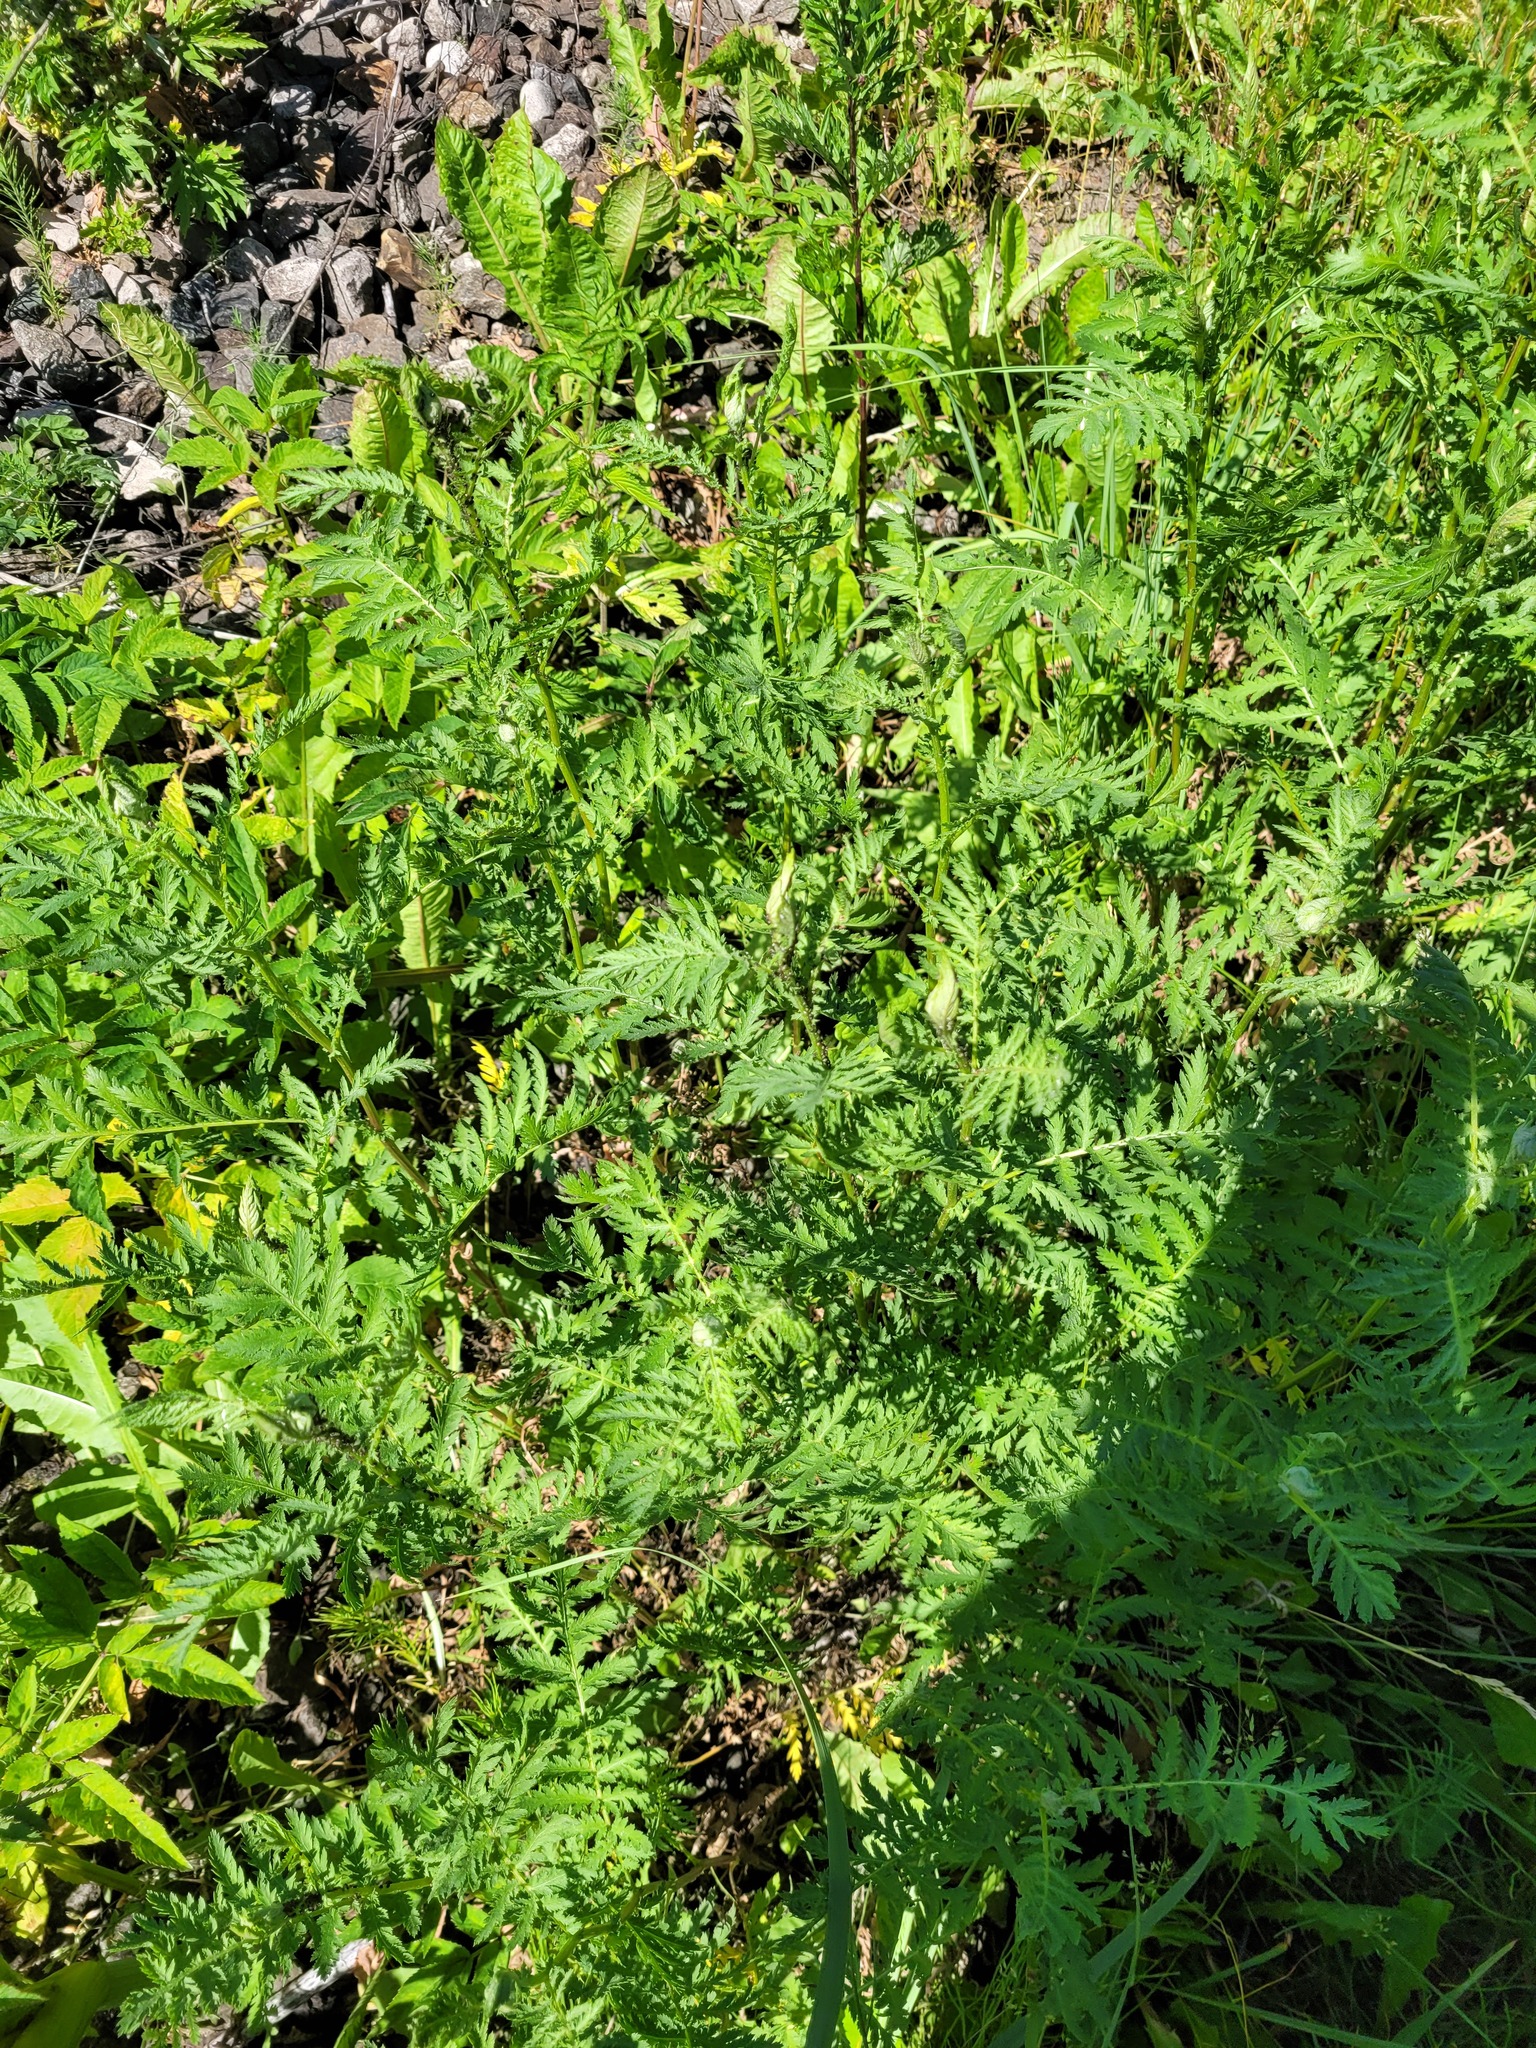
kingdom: Plantae
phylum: Tracheophyta
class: Magnoliopsida
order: Asterales
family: Asteraceae
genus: Tanacetum
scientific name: Tanacetum vulgare
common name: Common tansy
